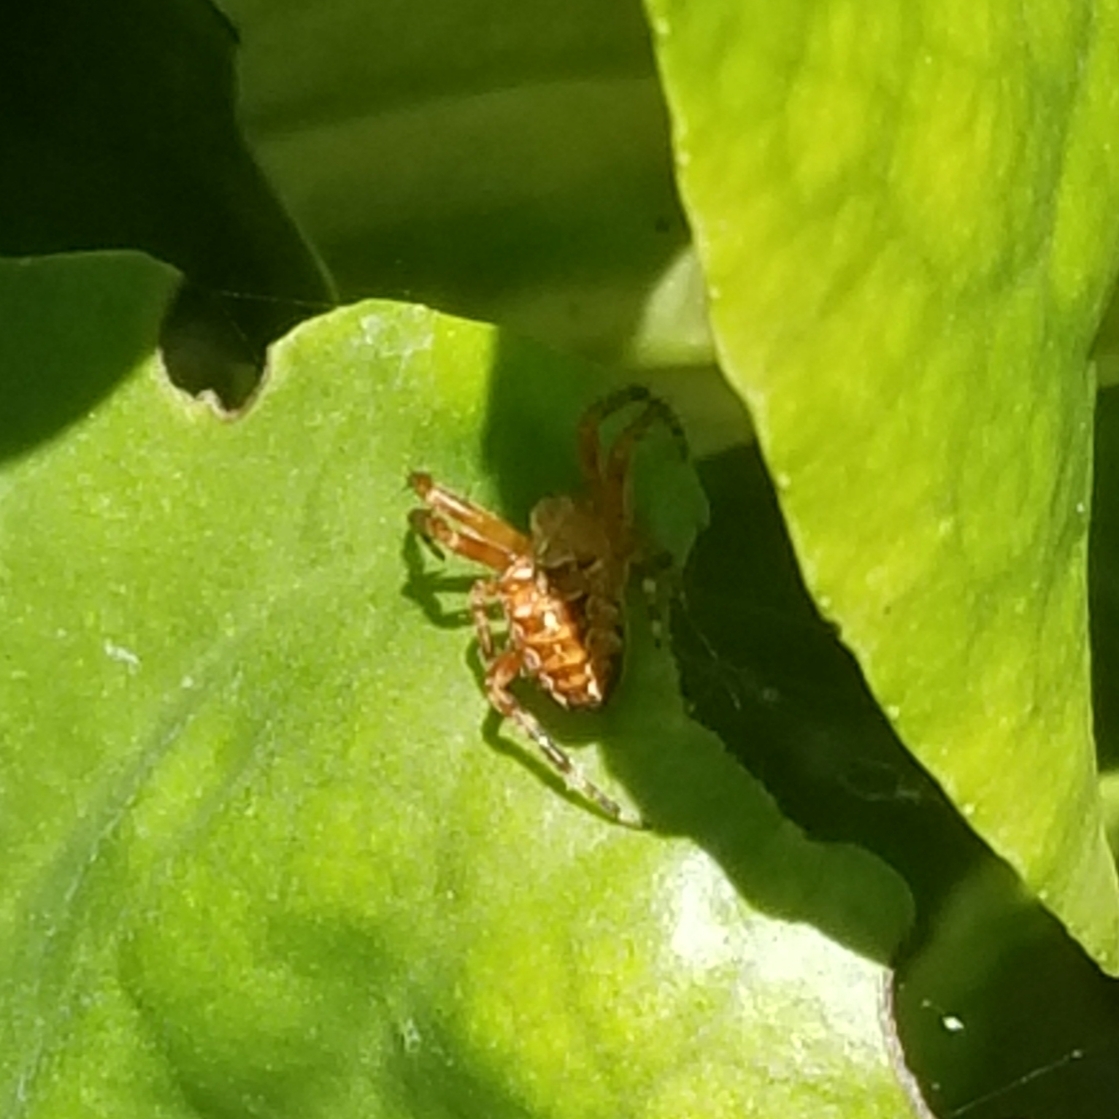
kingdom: Animalia
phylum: Arthropoda
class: Arachnida
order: Araneae
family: Araneidae
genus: Araneus
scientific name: Araneus diadematus
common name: Cross orbweaver
